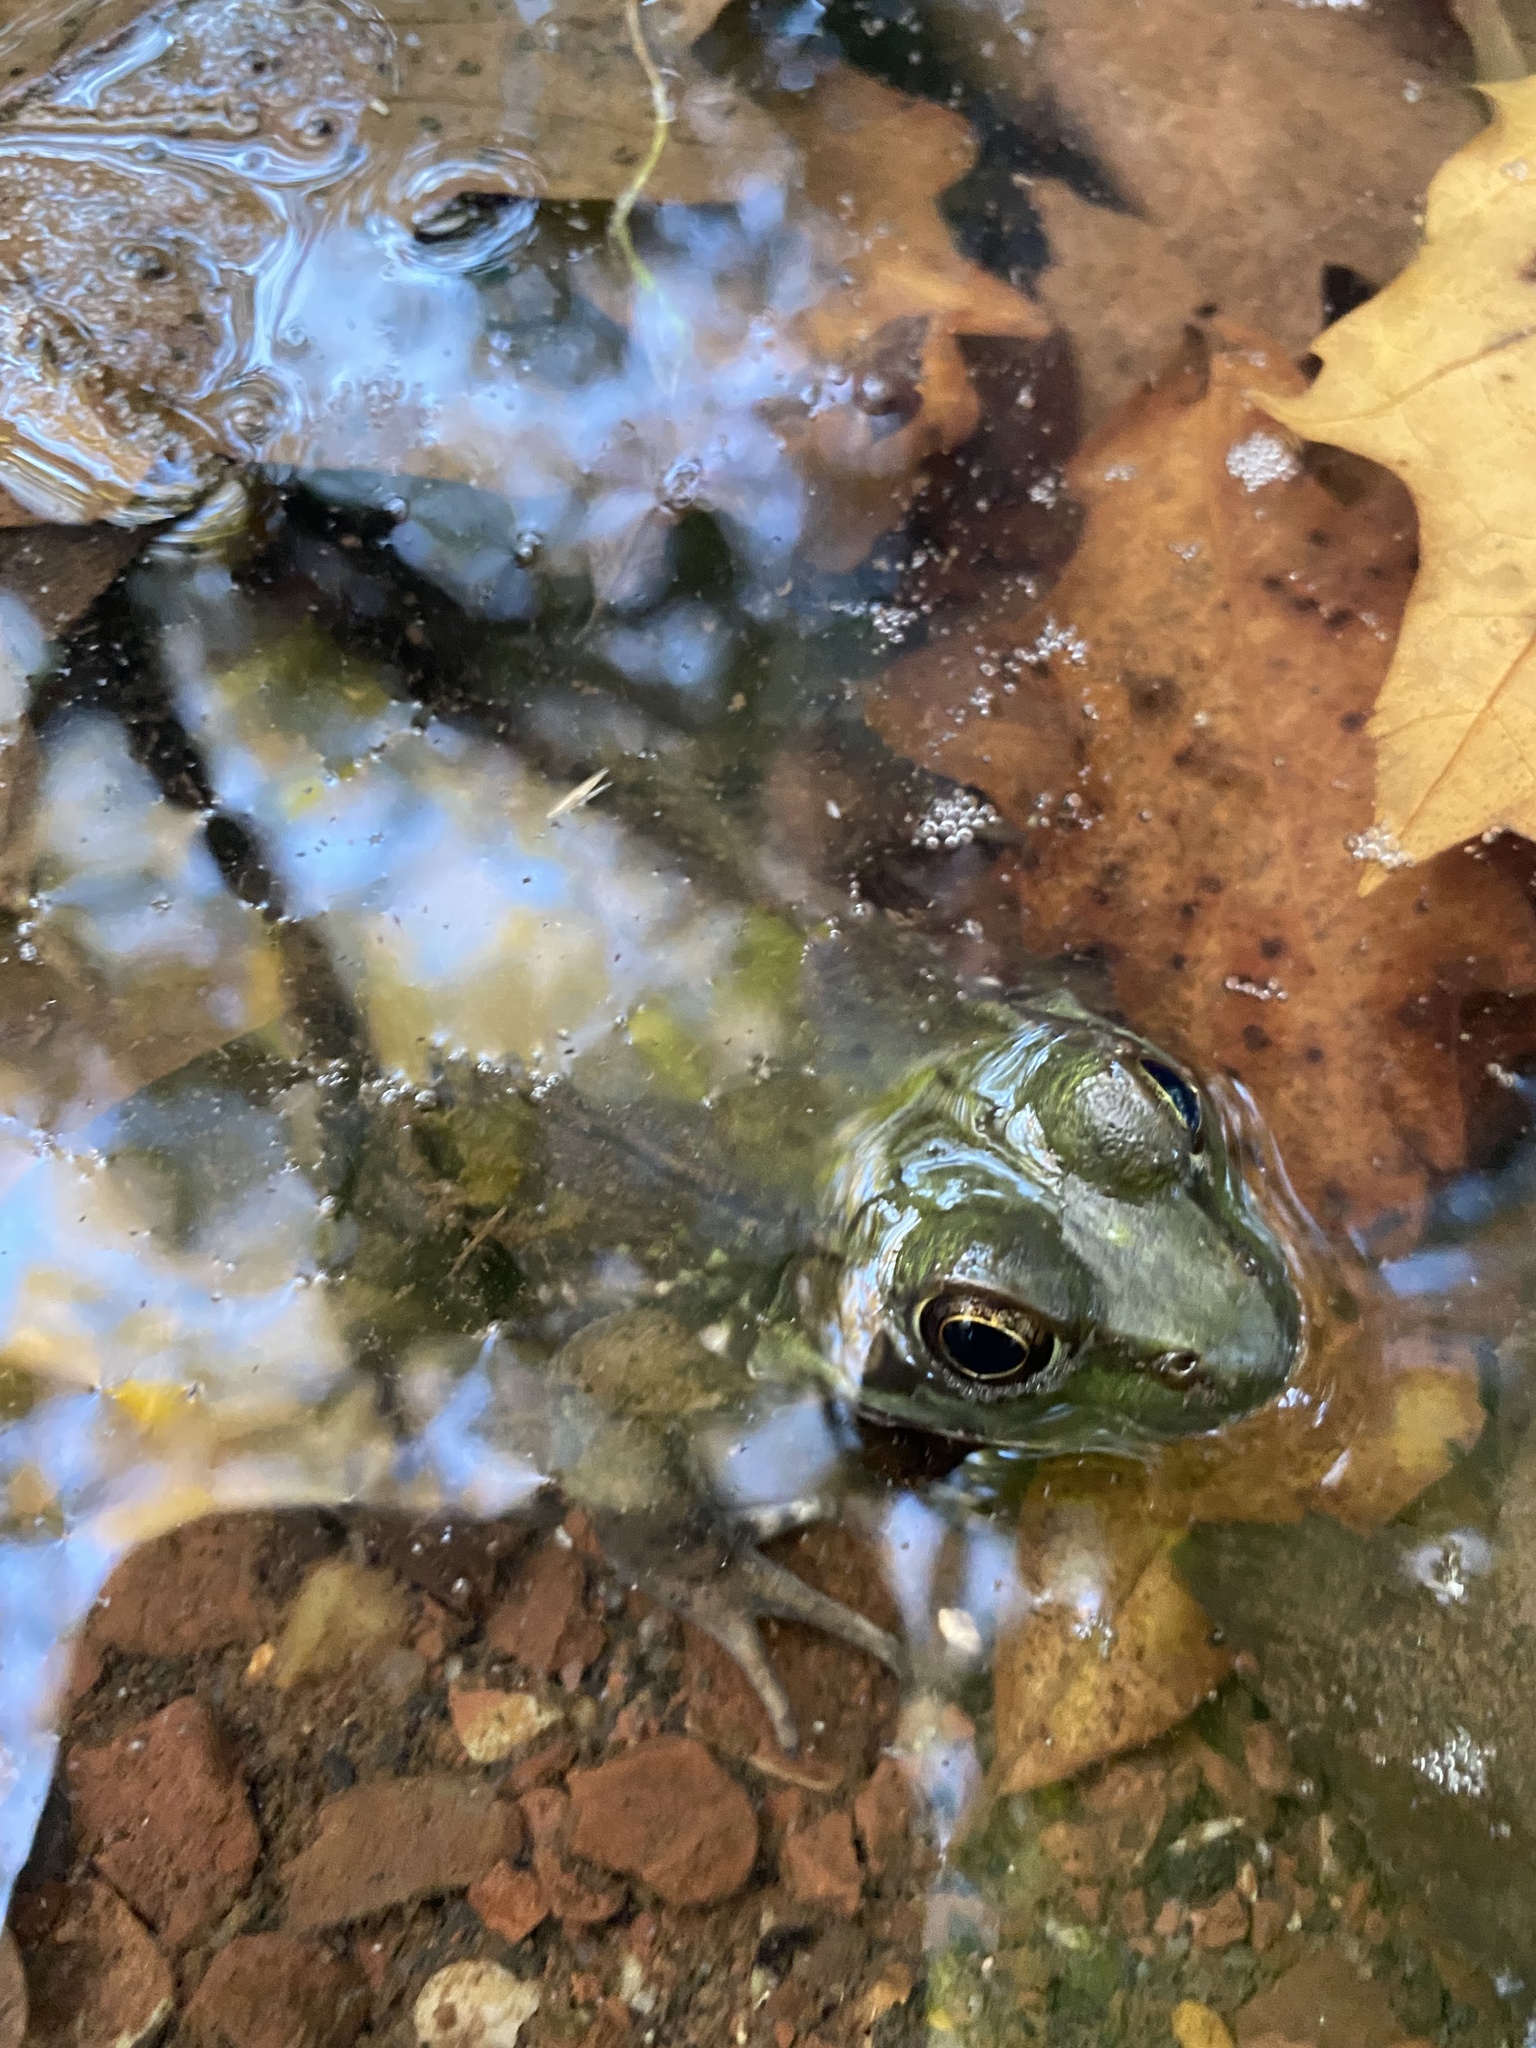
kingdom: Animalia
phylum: Chordata
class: Amphibia
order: Anura
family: Ranidae
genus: Lithobates
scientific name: Lithobates clamitans
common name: Green frog
